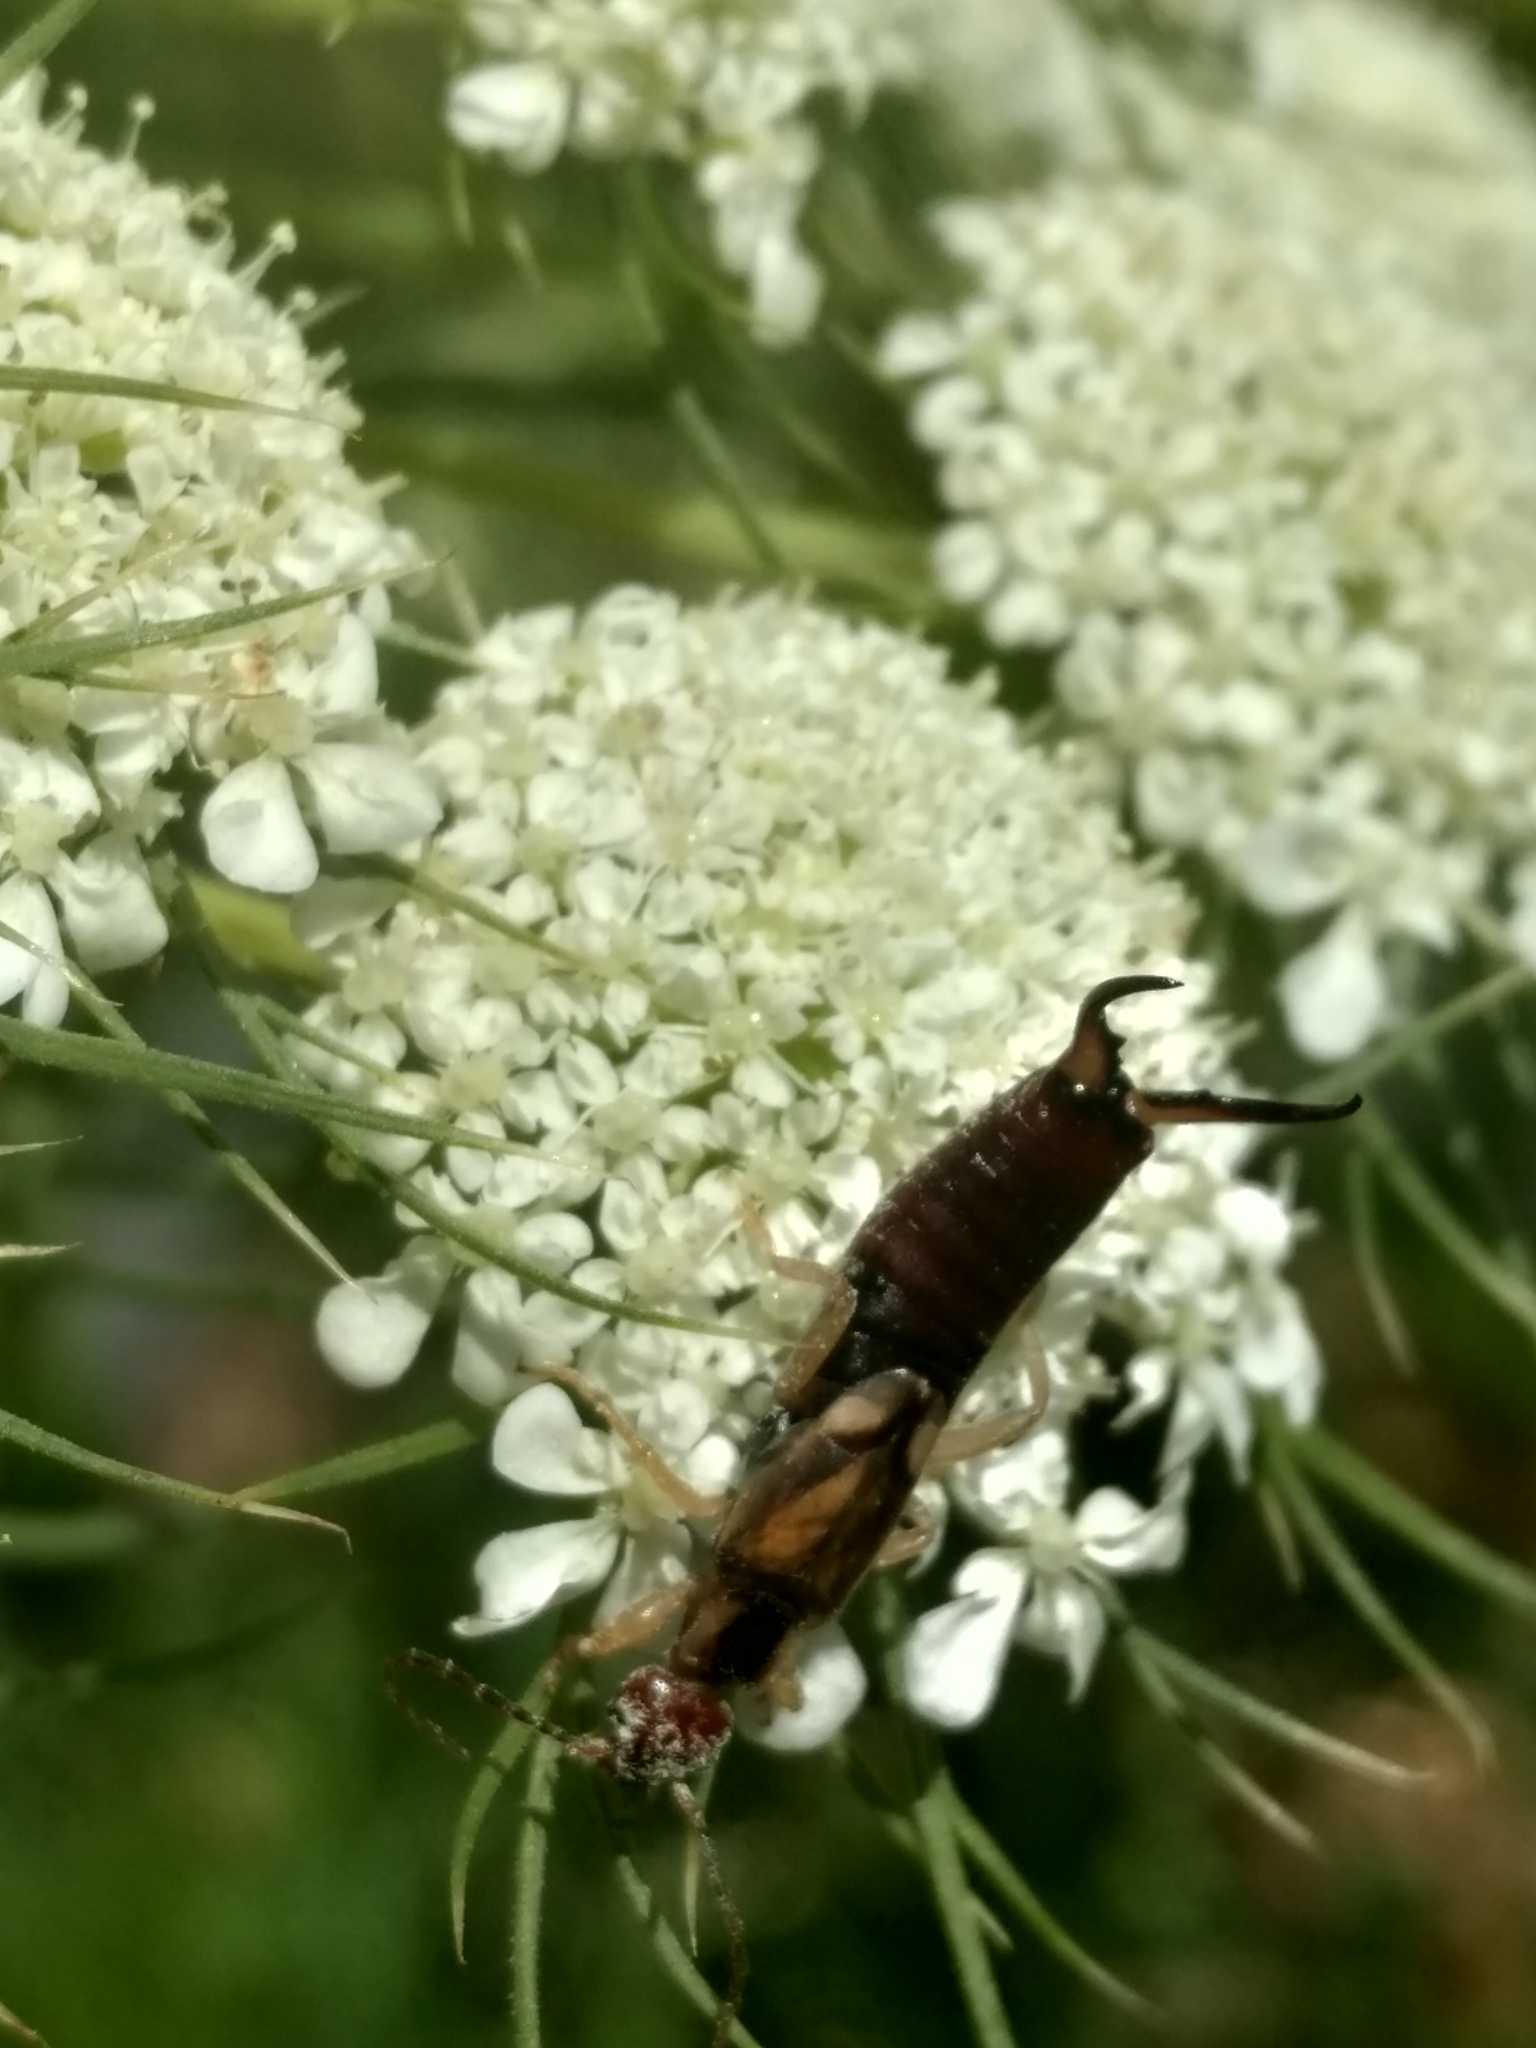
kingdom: Animalia
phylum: Arthropoda
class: Insecta
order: Dermaptera
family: Forficulidae
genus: Forficula
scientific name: Forficula
